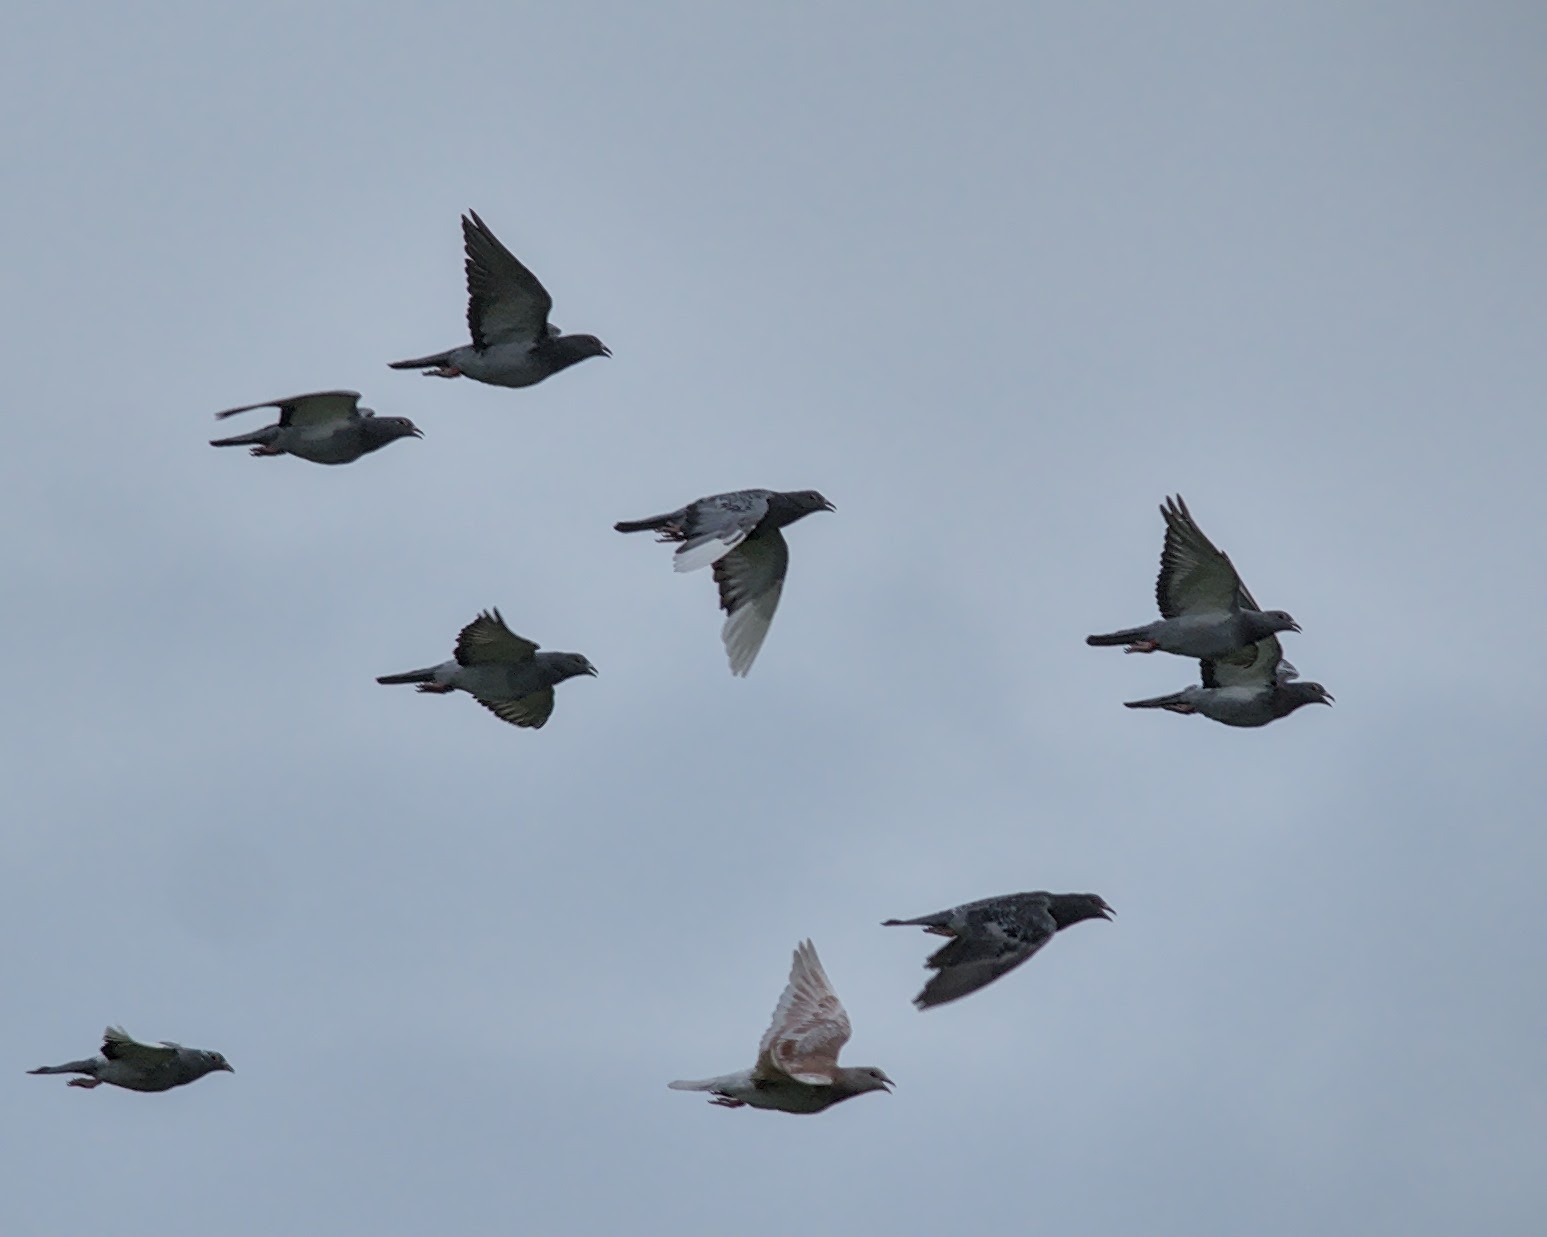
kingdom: Animalia
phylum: Chordata
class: Aves
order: Columbiformes
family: Columbidae
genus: Columba
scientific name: Columba livia
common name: Rock pigeon
